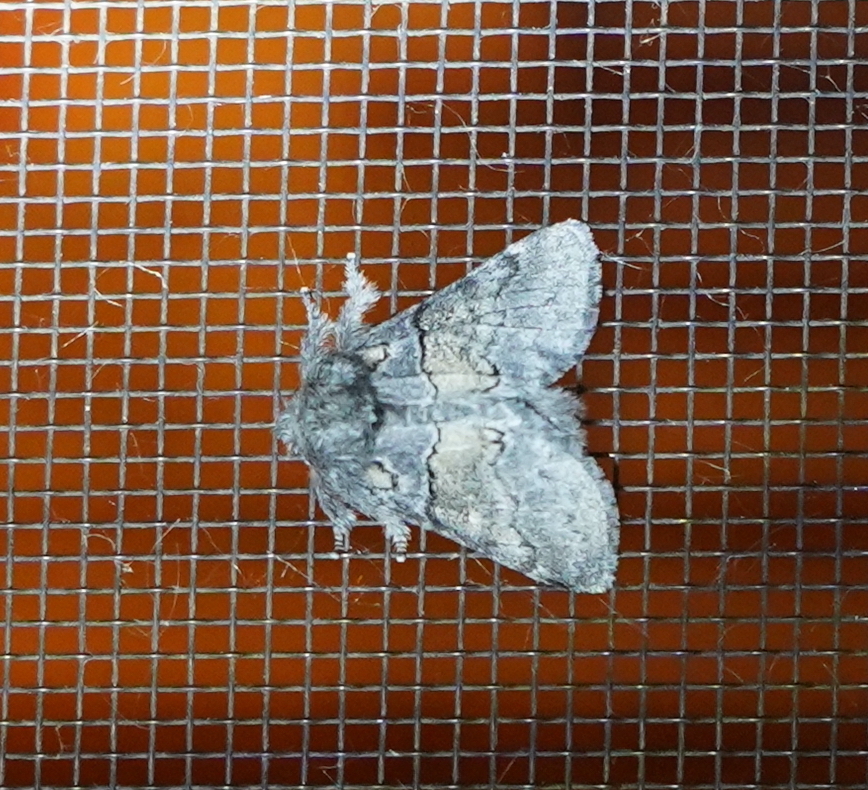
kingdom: Animalia
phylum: Arthropoda
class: Insecta
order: Lepidoptera
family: Notodontidae
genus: Gluphisia
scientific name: Gluphisia septentrionis
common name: Common gluphisia
